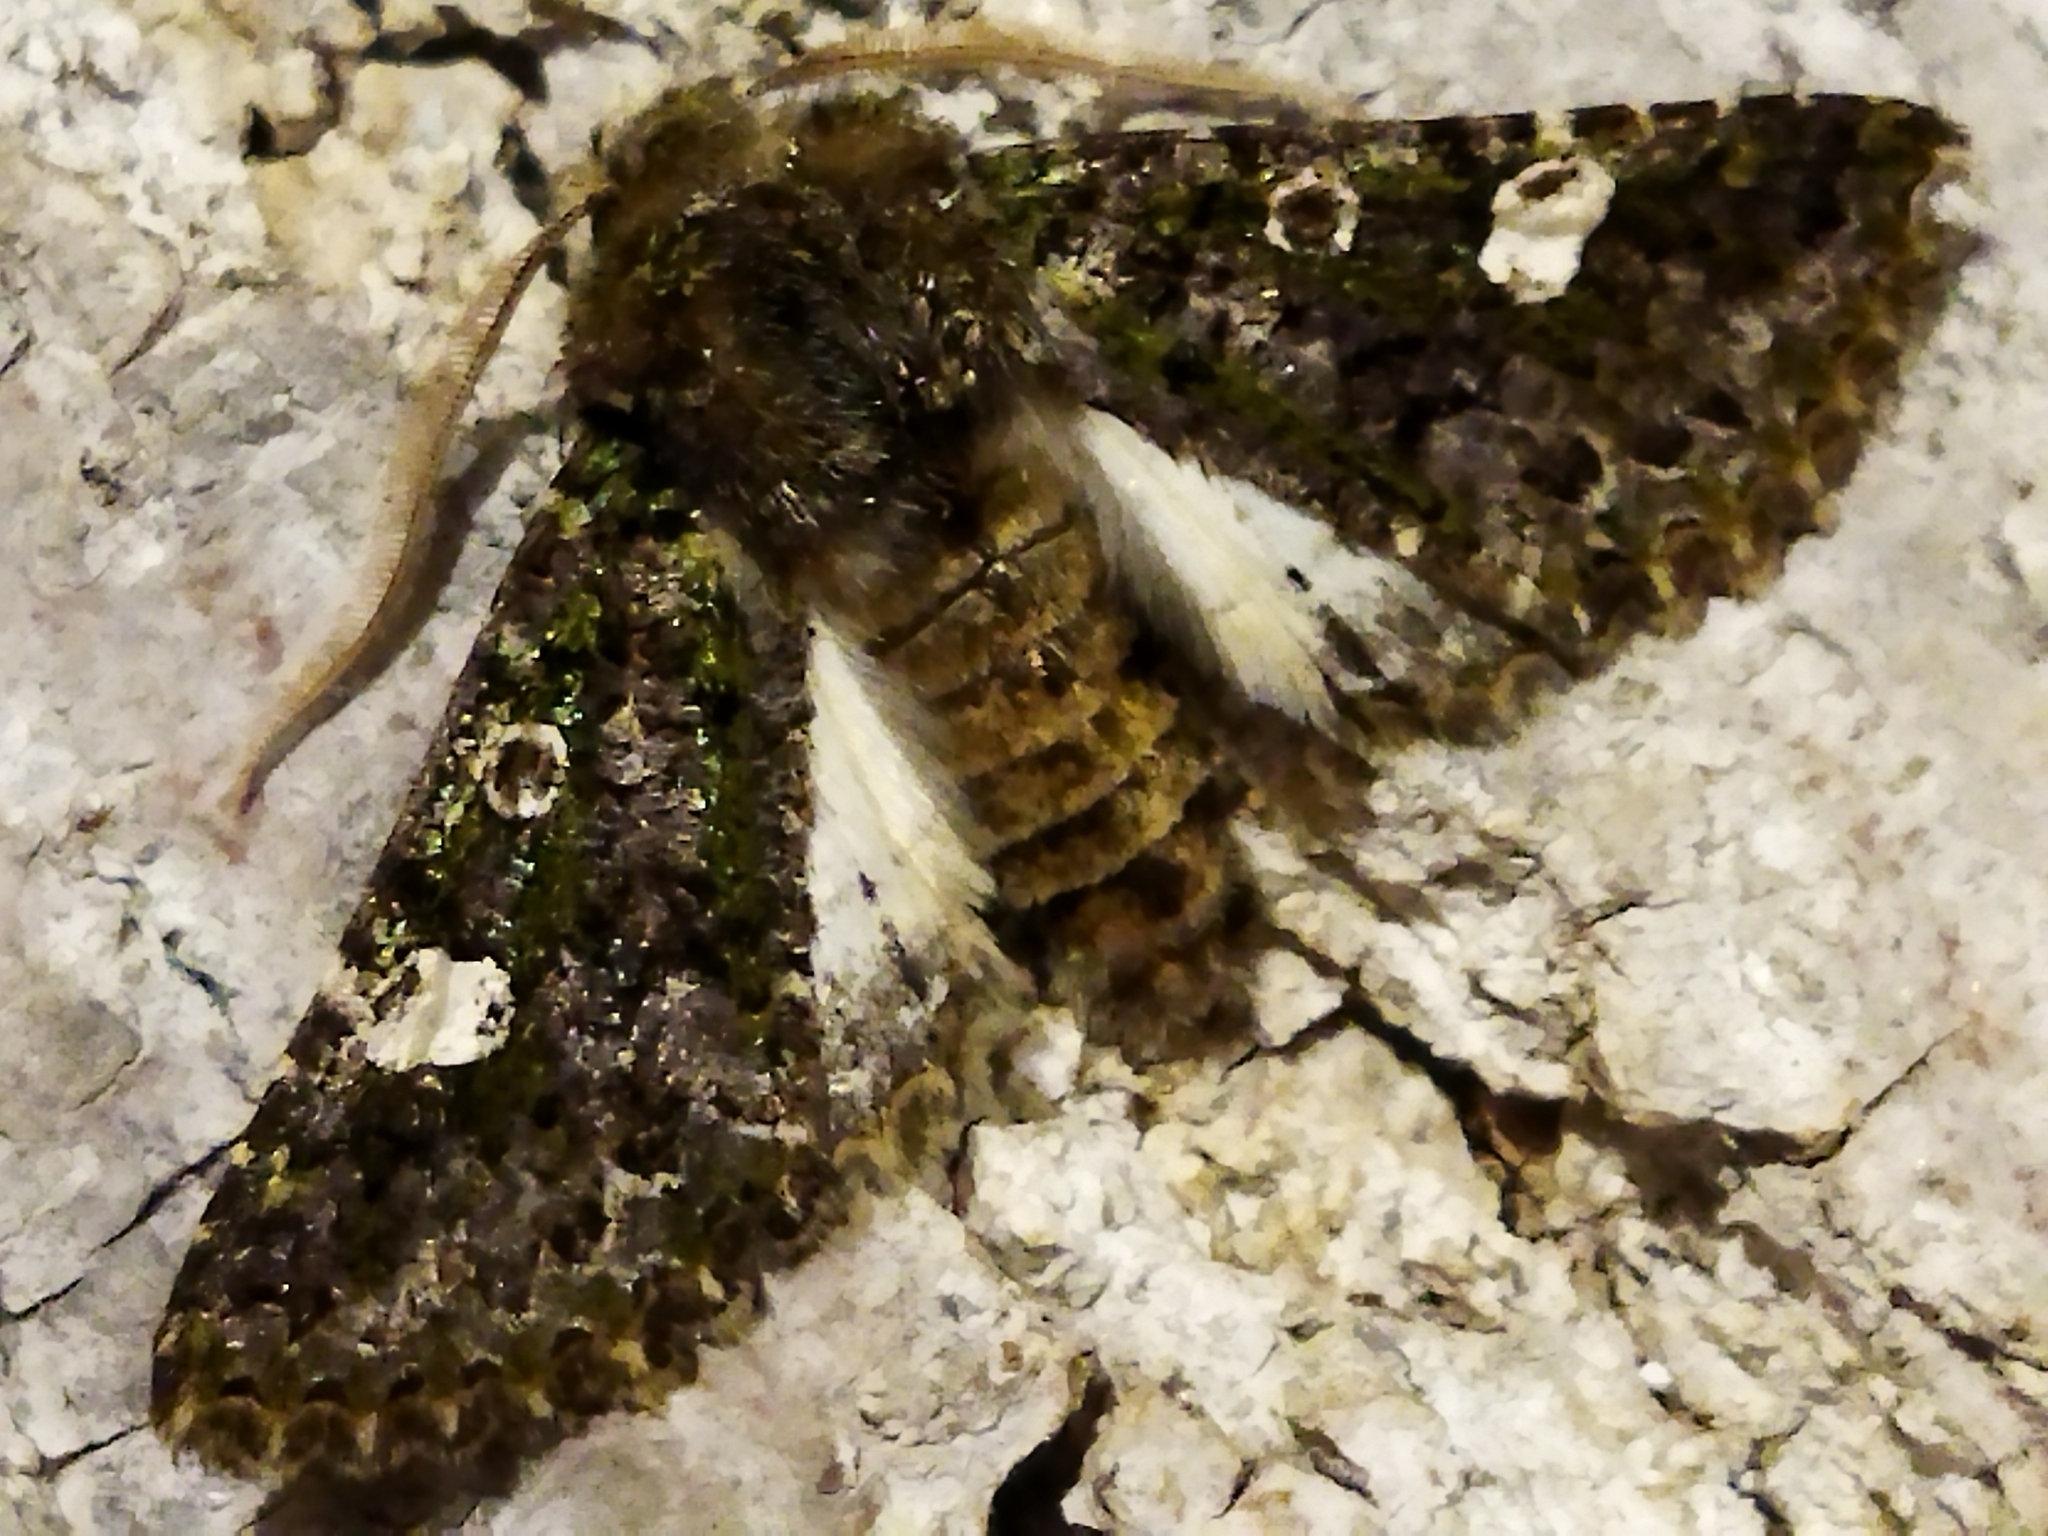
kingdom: Animalia
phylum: Arthropoda
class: Insecta
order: Lepidoptera
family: Noctuidae
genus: Valeria
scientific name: Valeria oleagina
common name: Green-brindled dot
